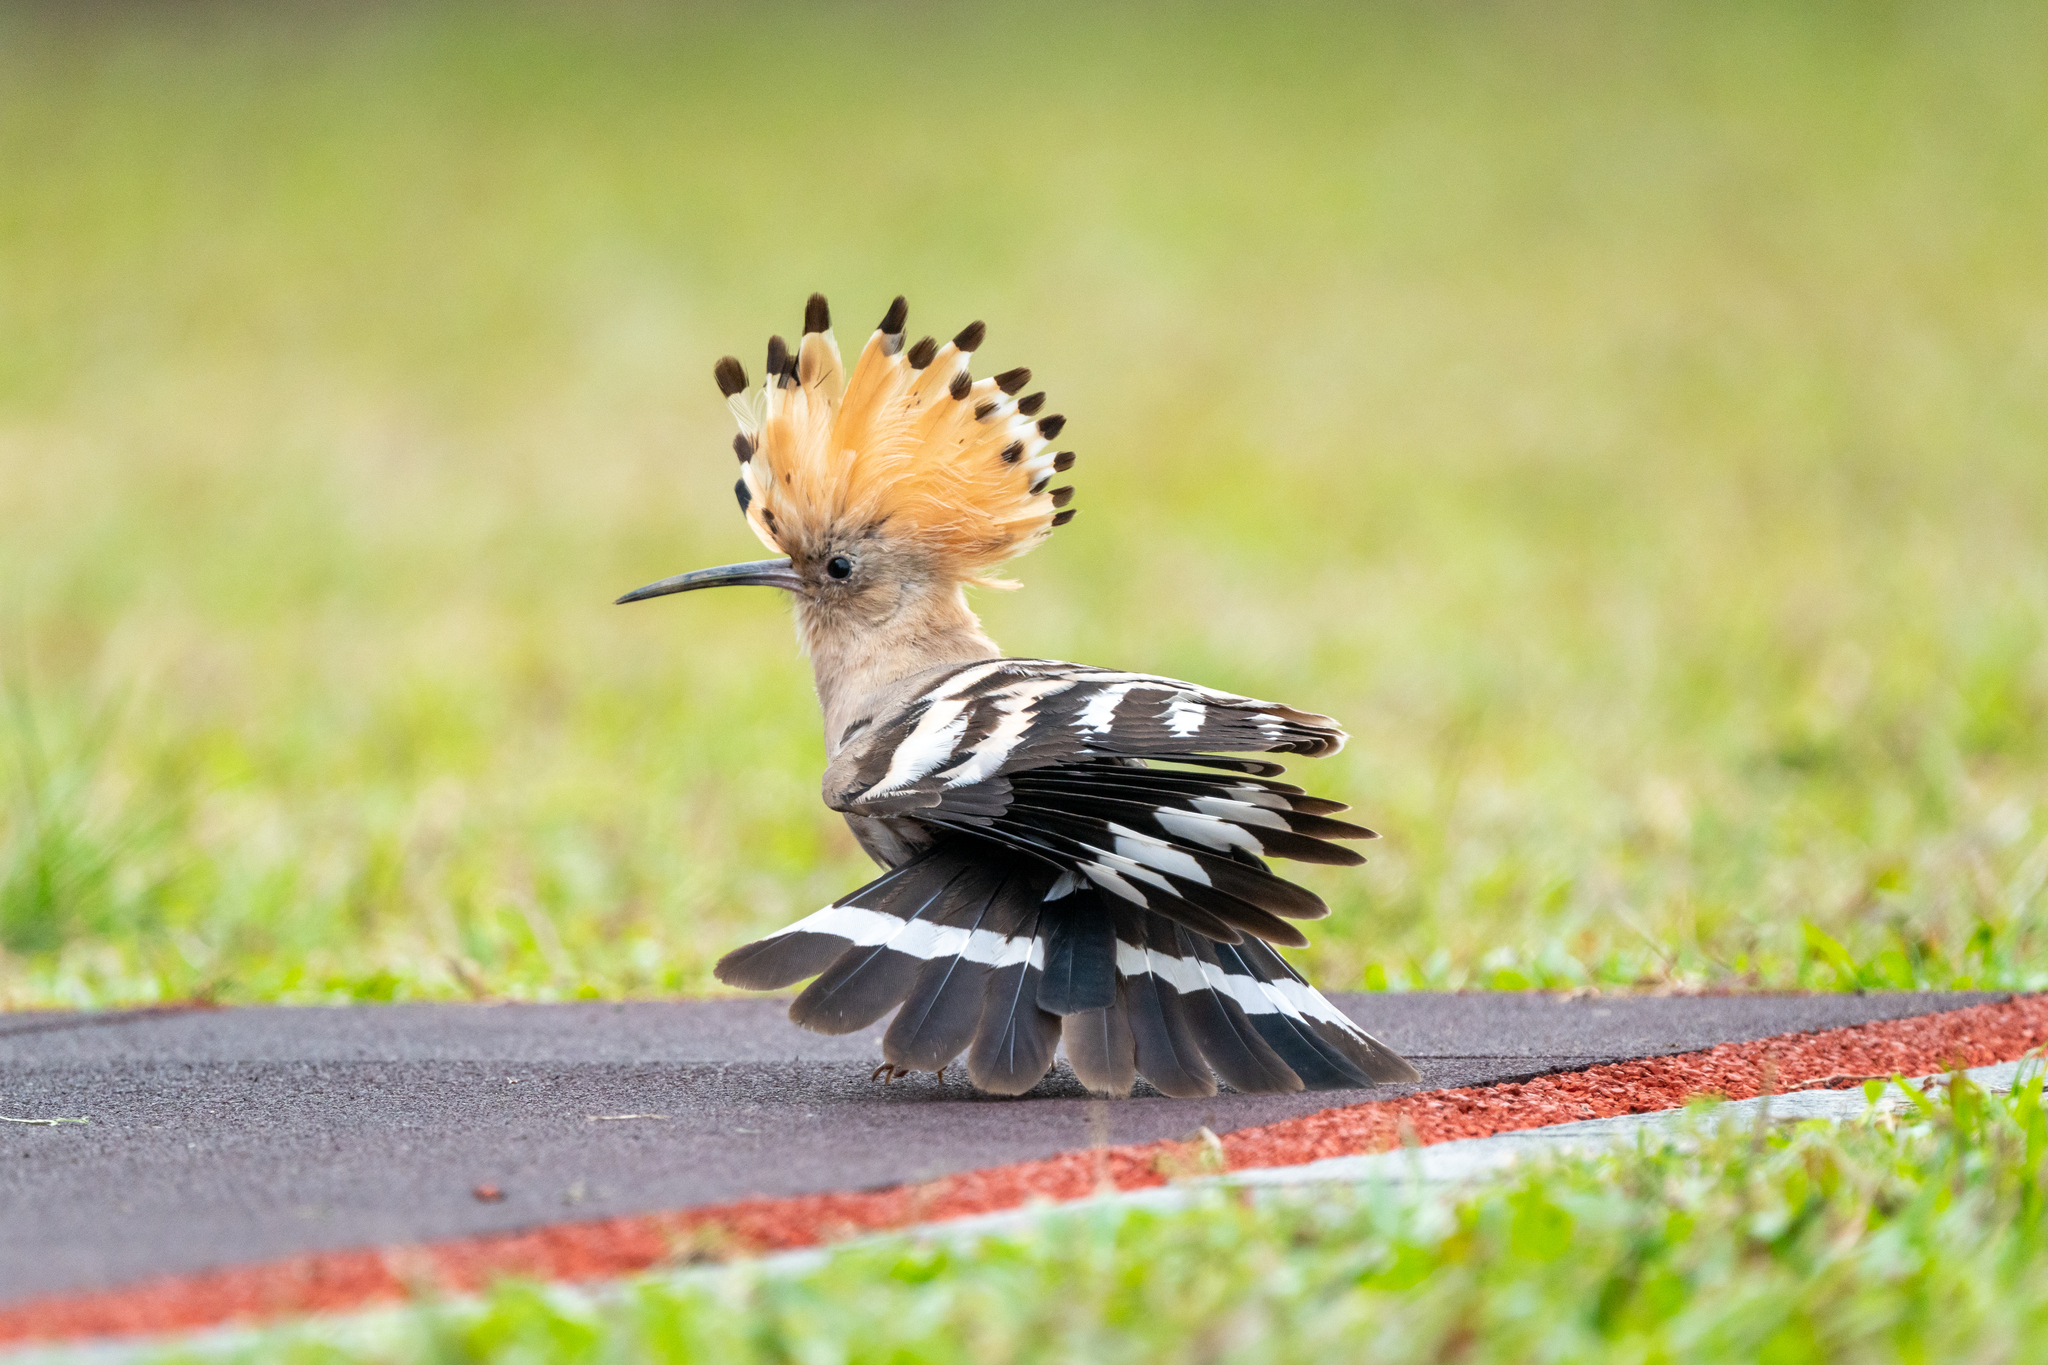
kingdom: Animalia
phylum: Chordata
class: Aves
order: Bucerotiformes
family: Upupidae
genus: Upupa
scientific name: Upupa epops
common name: Eurasian hoopoe
